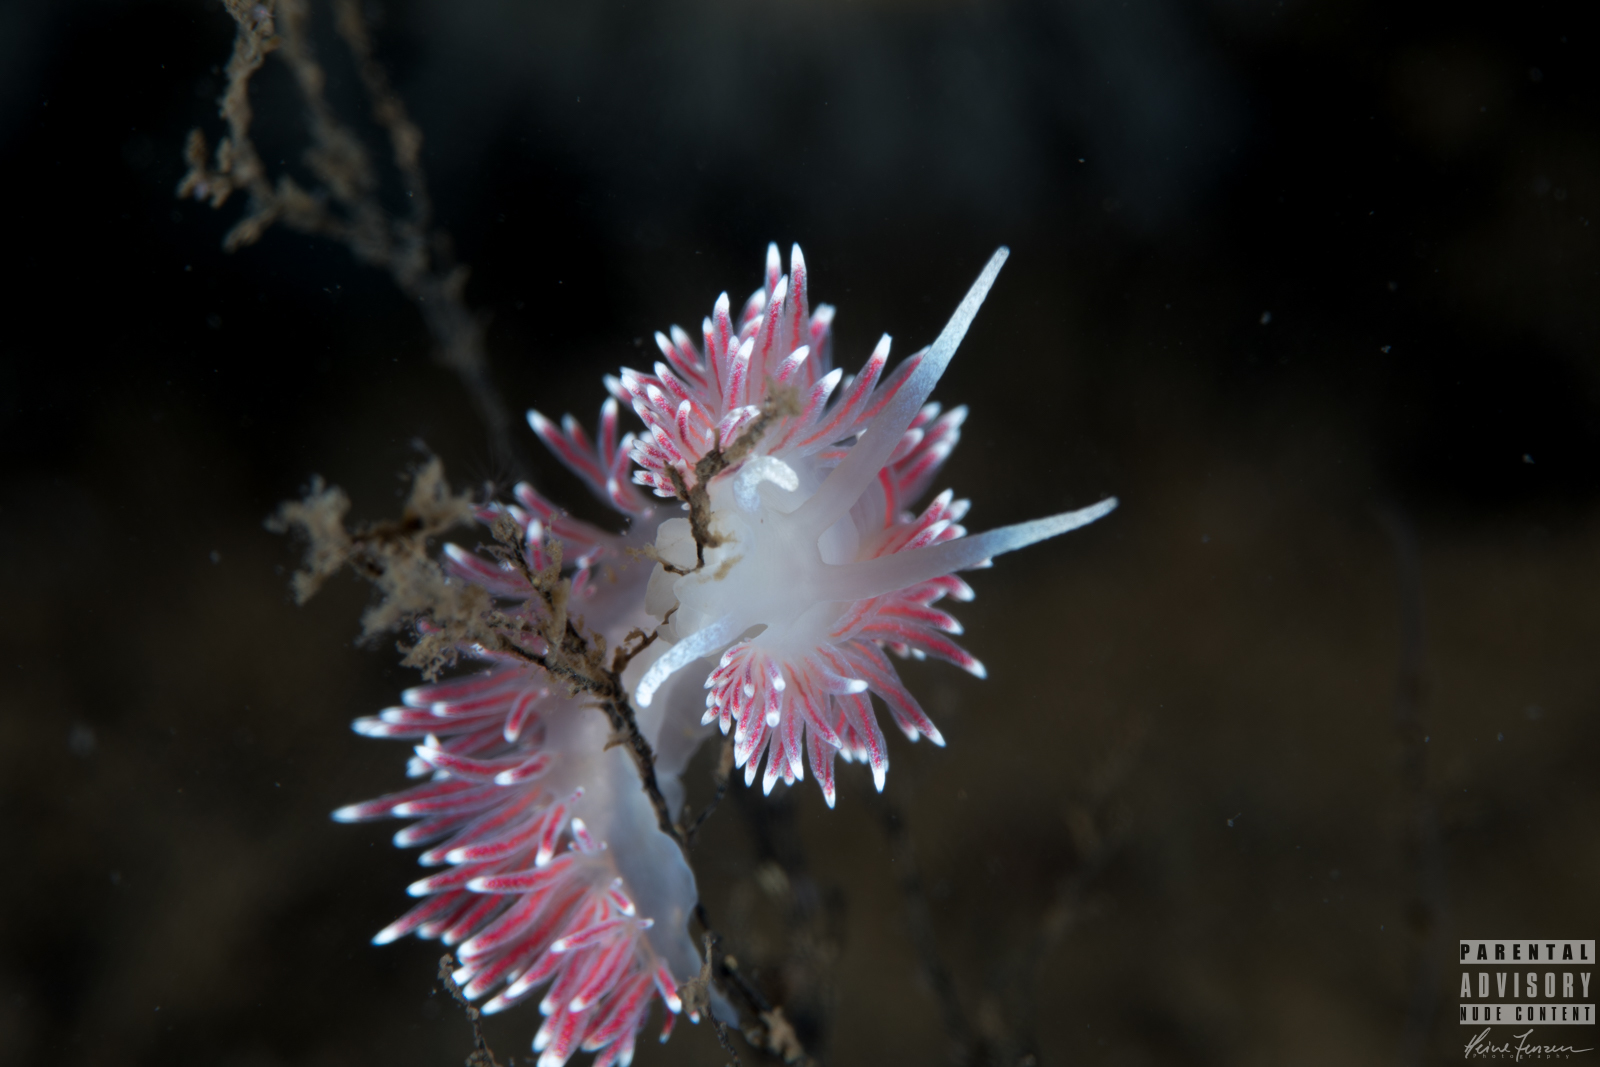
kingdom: Animalia
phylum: Mollusca
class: Gastropoda
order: Nudibranchia
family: Flabellinidae
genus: Carronella
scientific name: Carronella pellucida
